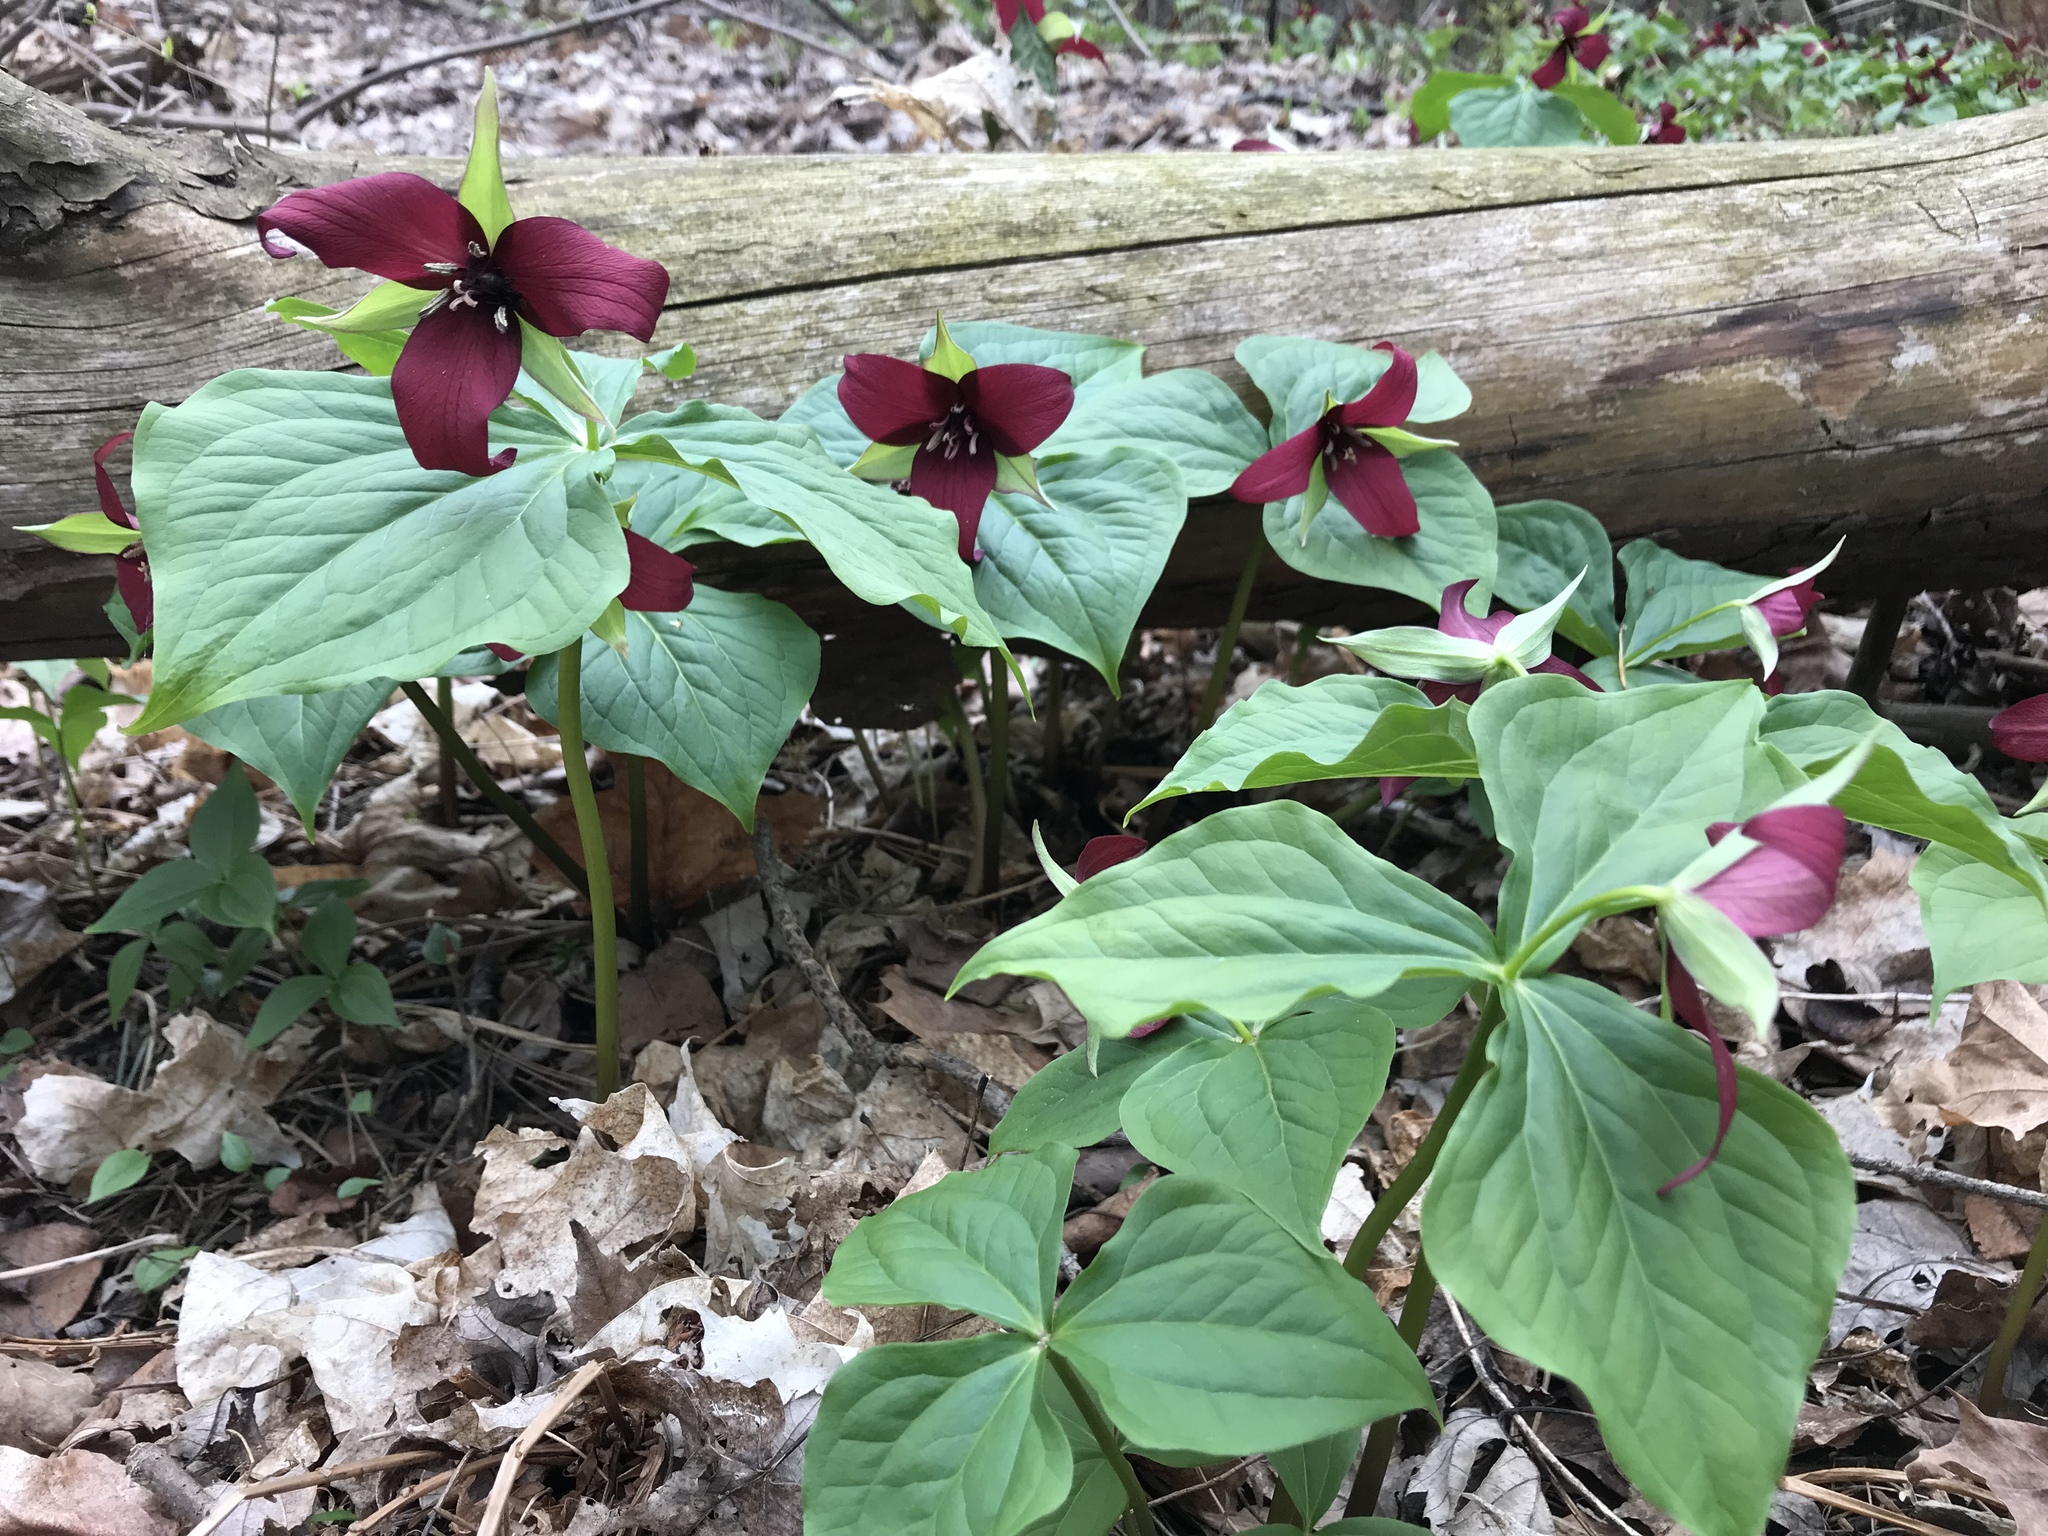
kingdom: Plantae
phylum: Tracheophyta
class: Liliopsida
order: Liliales
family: Melanthiaceae
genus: Trillium
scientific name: Trillium erectum
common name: Purple trillium
